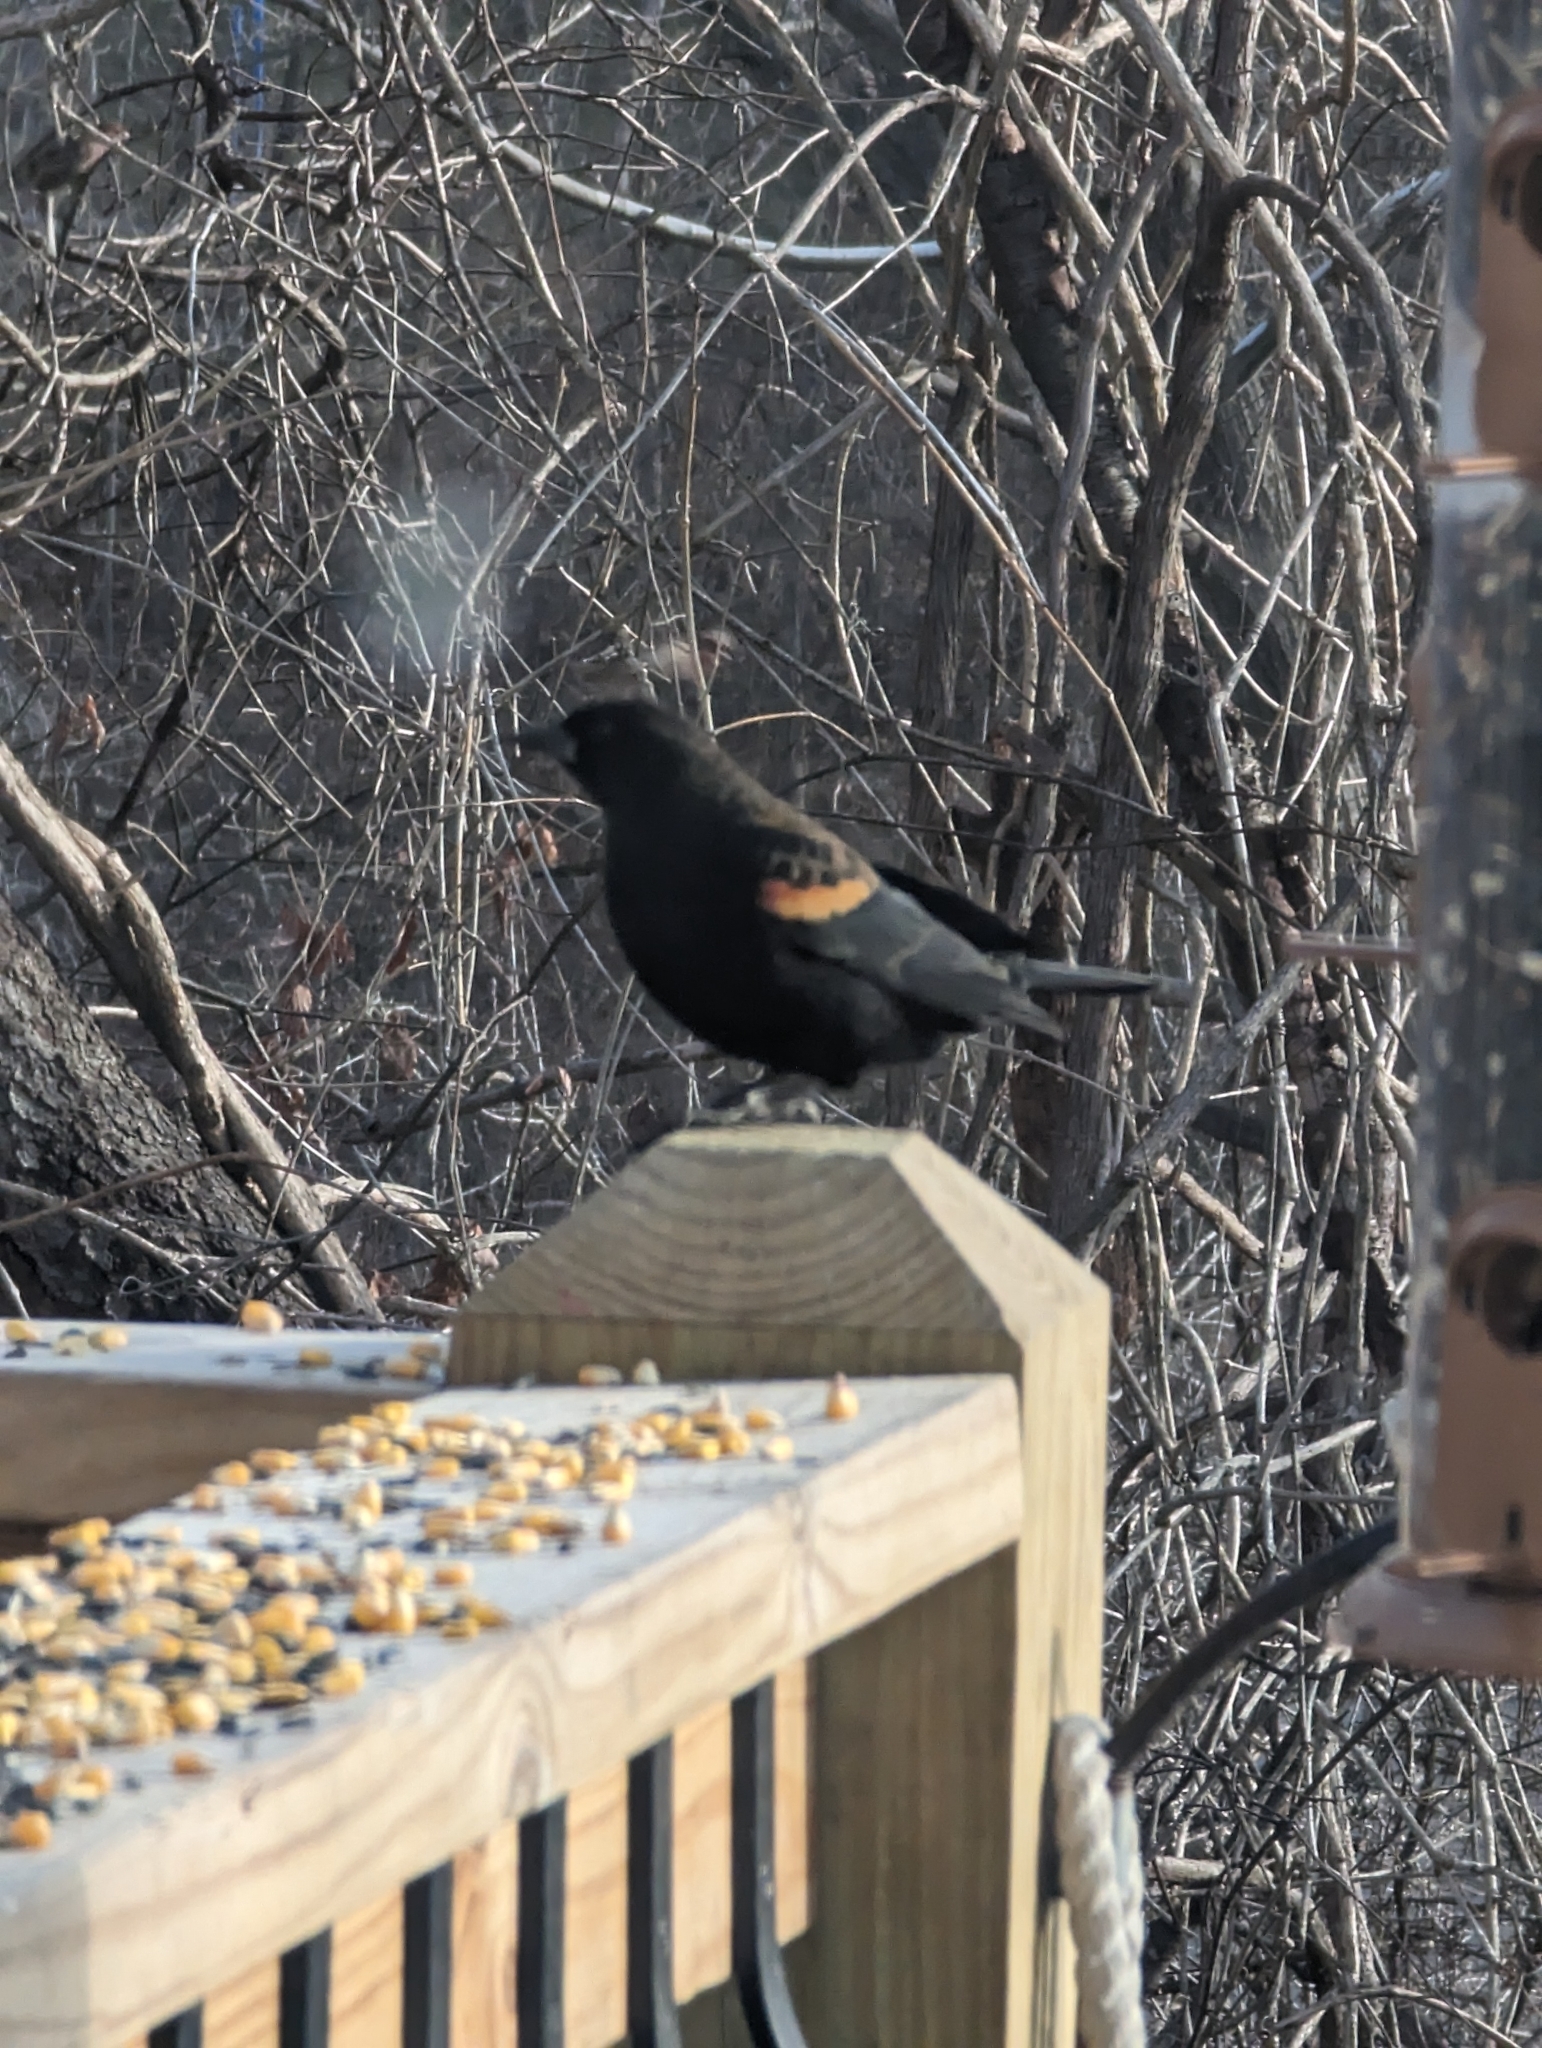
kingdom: Animalia
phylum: Chordata
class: Aves
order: Passeriformes
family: Icteridae
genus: Agelaius
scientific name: Agelaius phoeniceus
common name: Red-winged blackbird
